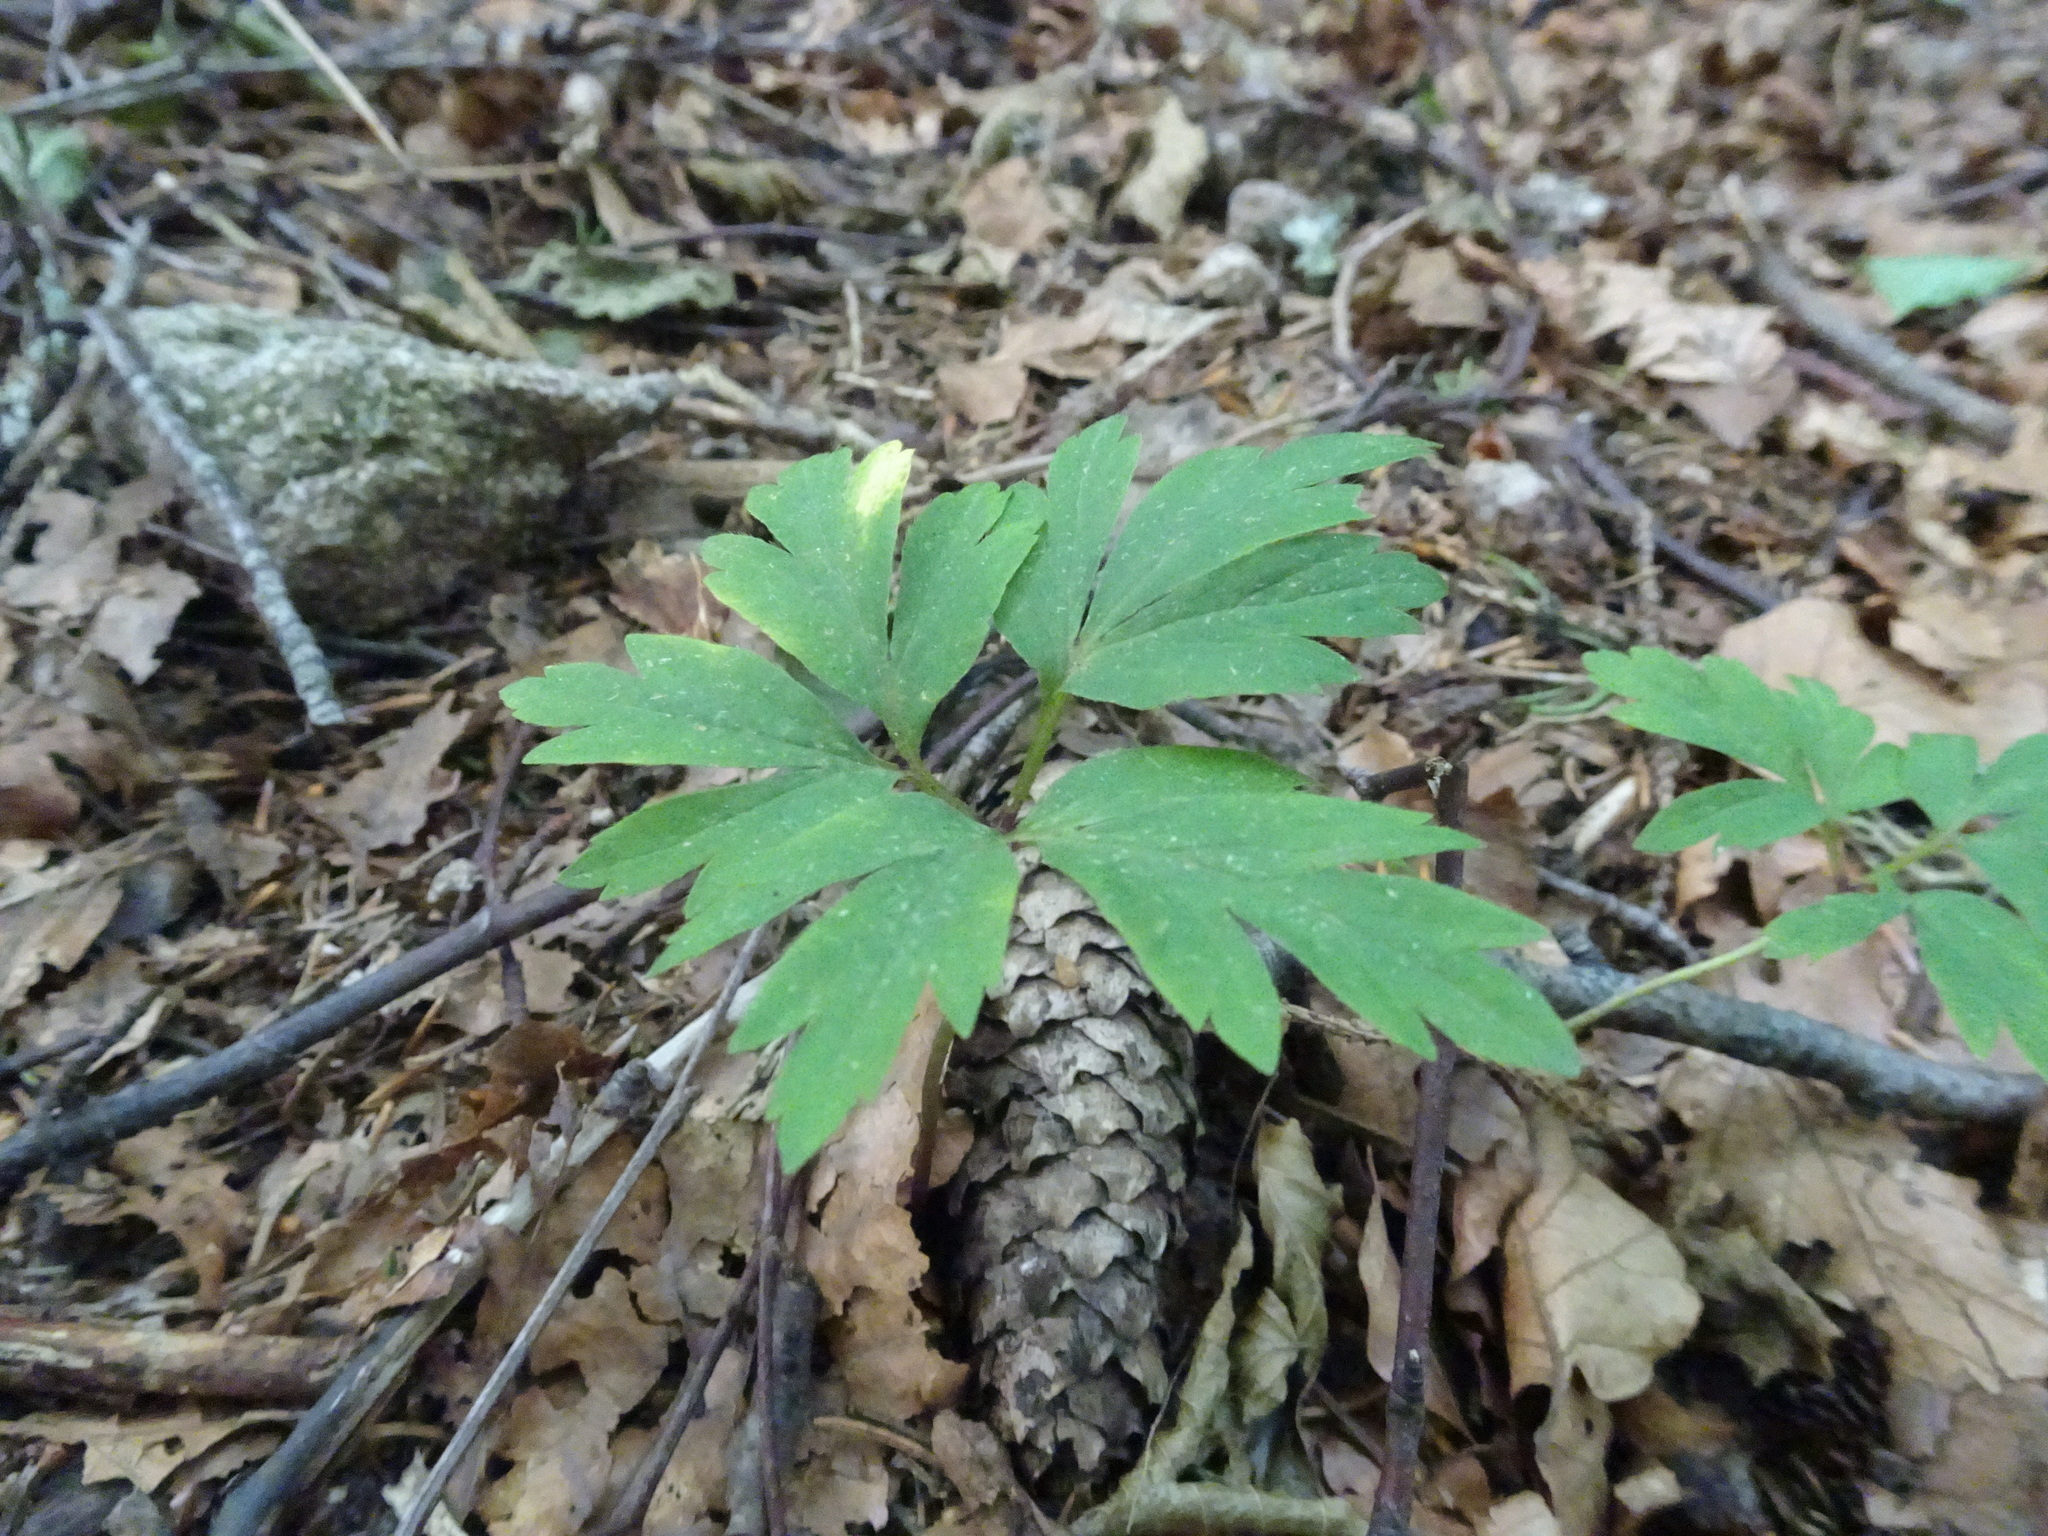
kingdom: Plantae
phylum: Tracheophyta
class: Magnoliopsida
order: Ranunculales
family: Ranunculaceae
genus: Anemone
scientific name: Anemone nemorosa
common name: Wood anemone
